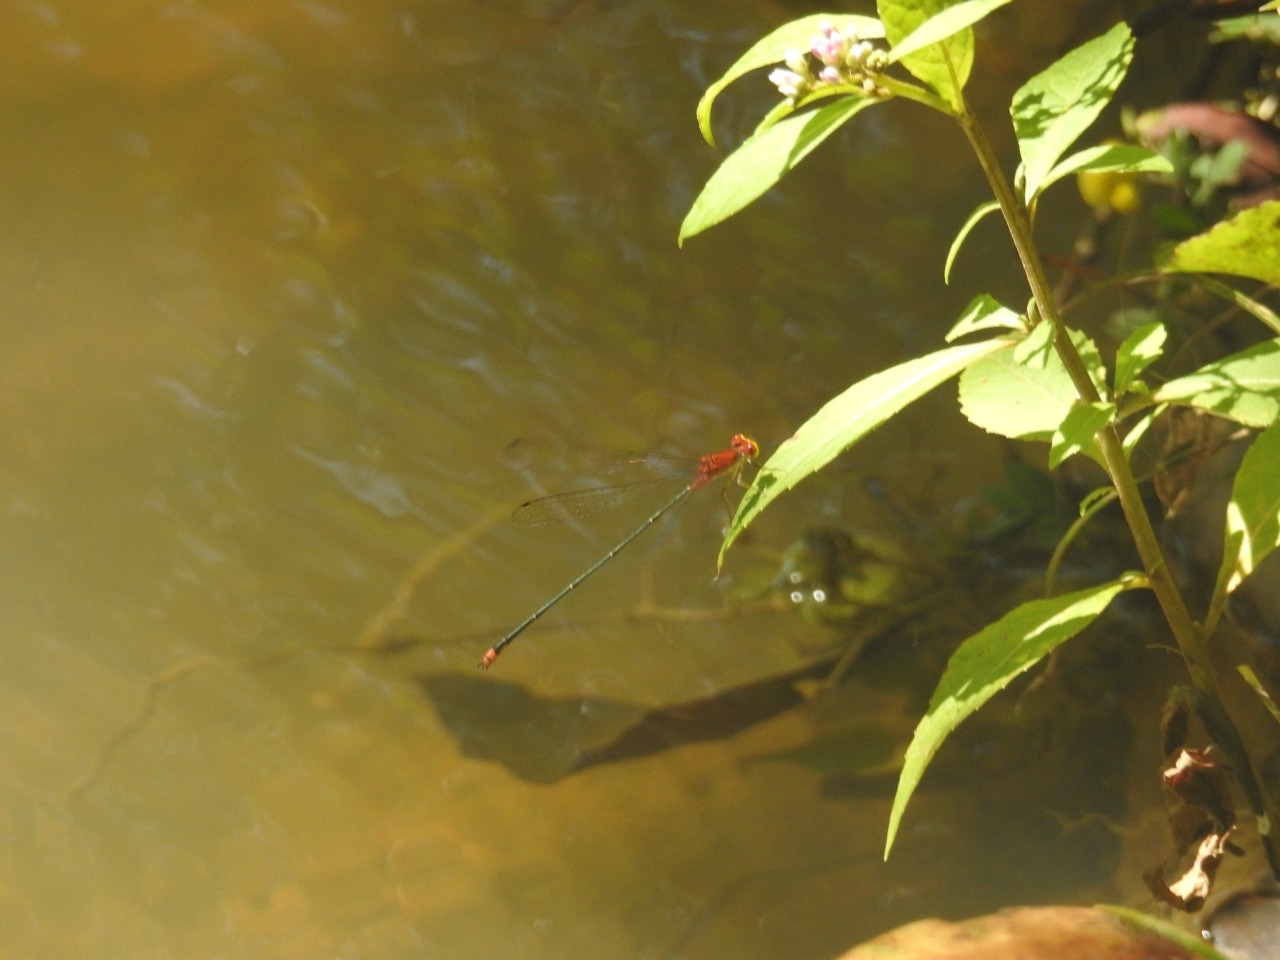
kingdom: Animalia
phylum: Arthropoda
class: Insecta
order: Odonata
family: Coenagrionidae
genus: Pseudagrion
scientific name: Pseudagrion pilidorsum
